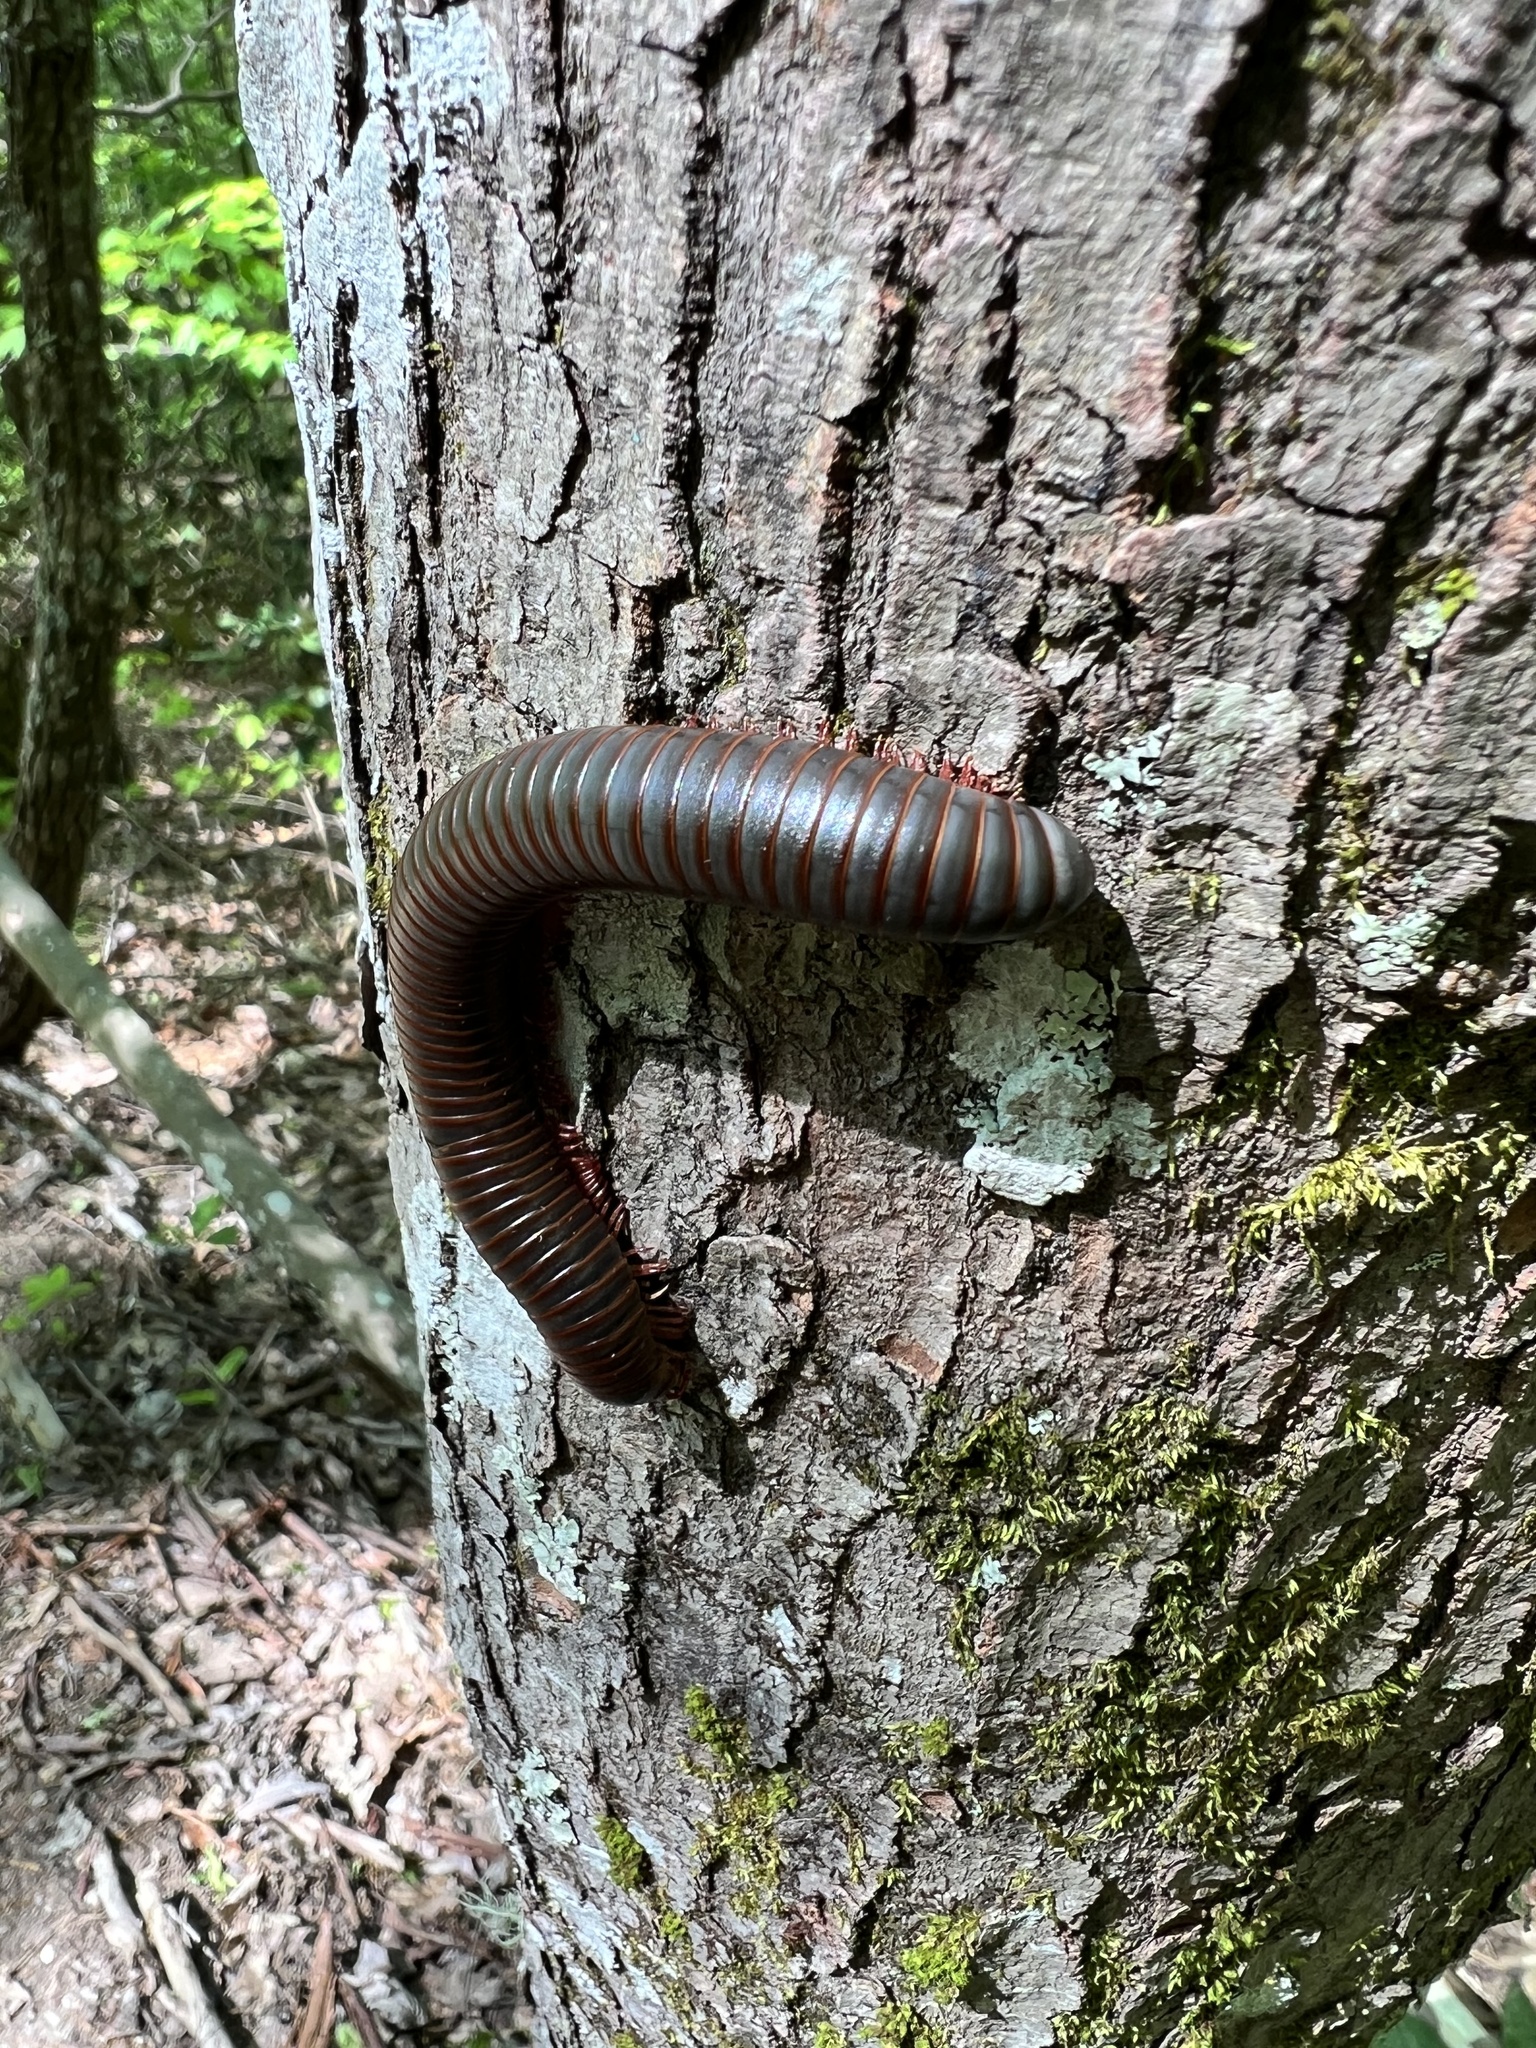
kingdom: Animalia
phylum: Arthropoda
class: Diplopoda
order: Spirobolida
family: Spirobolidae
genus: Narceus
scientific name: Narceus americanus
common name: American giant millipede
